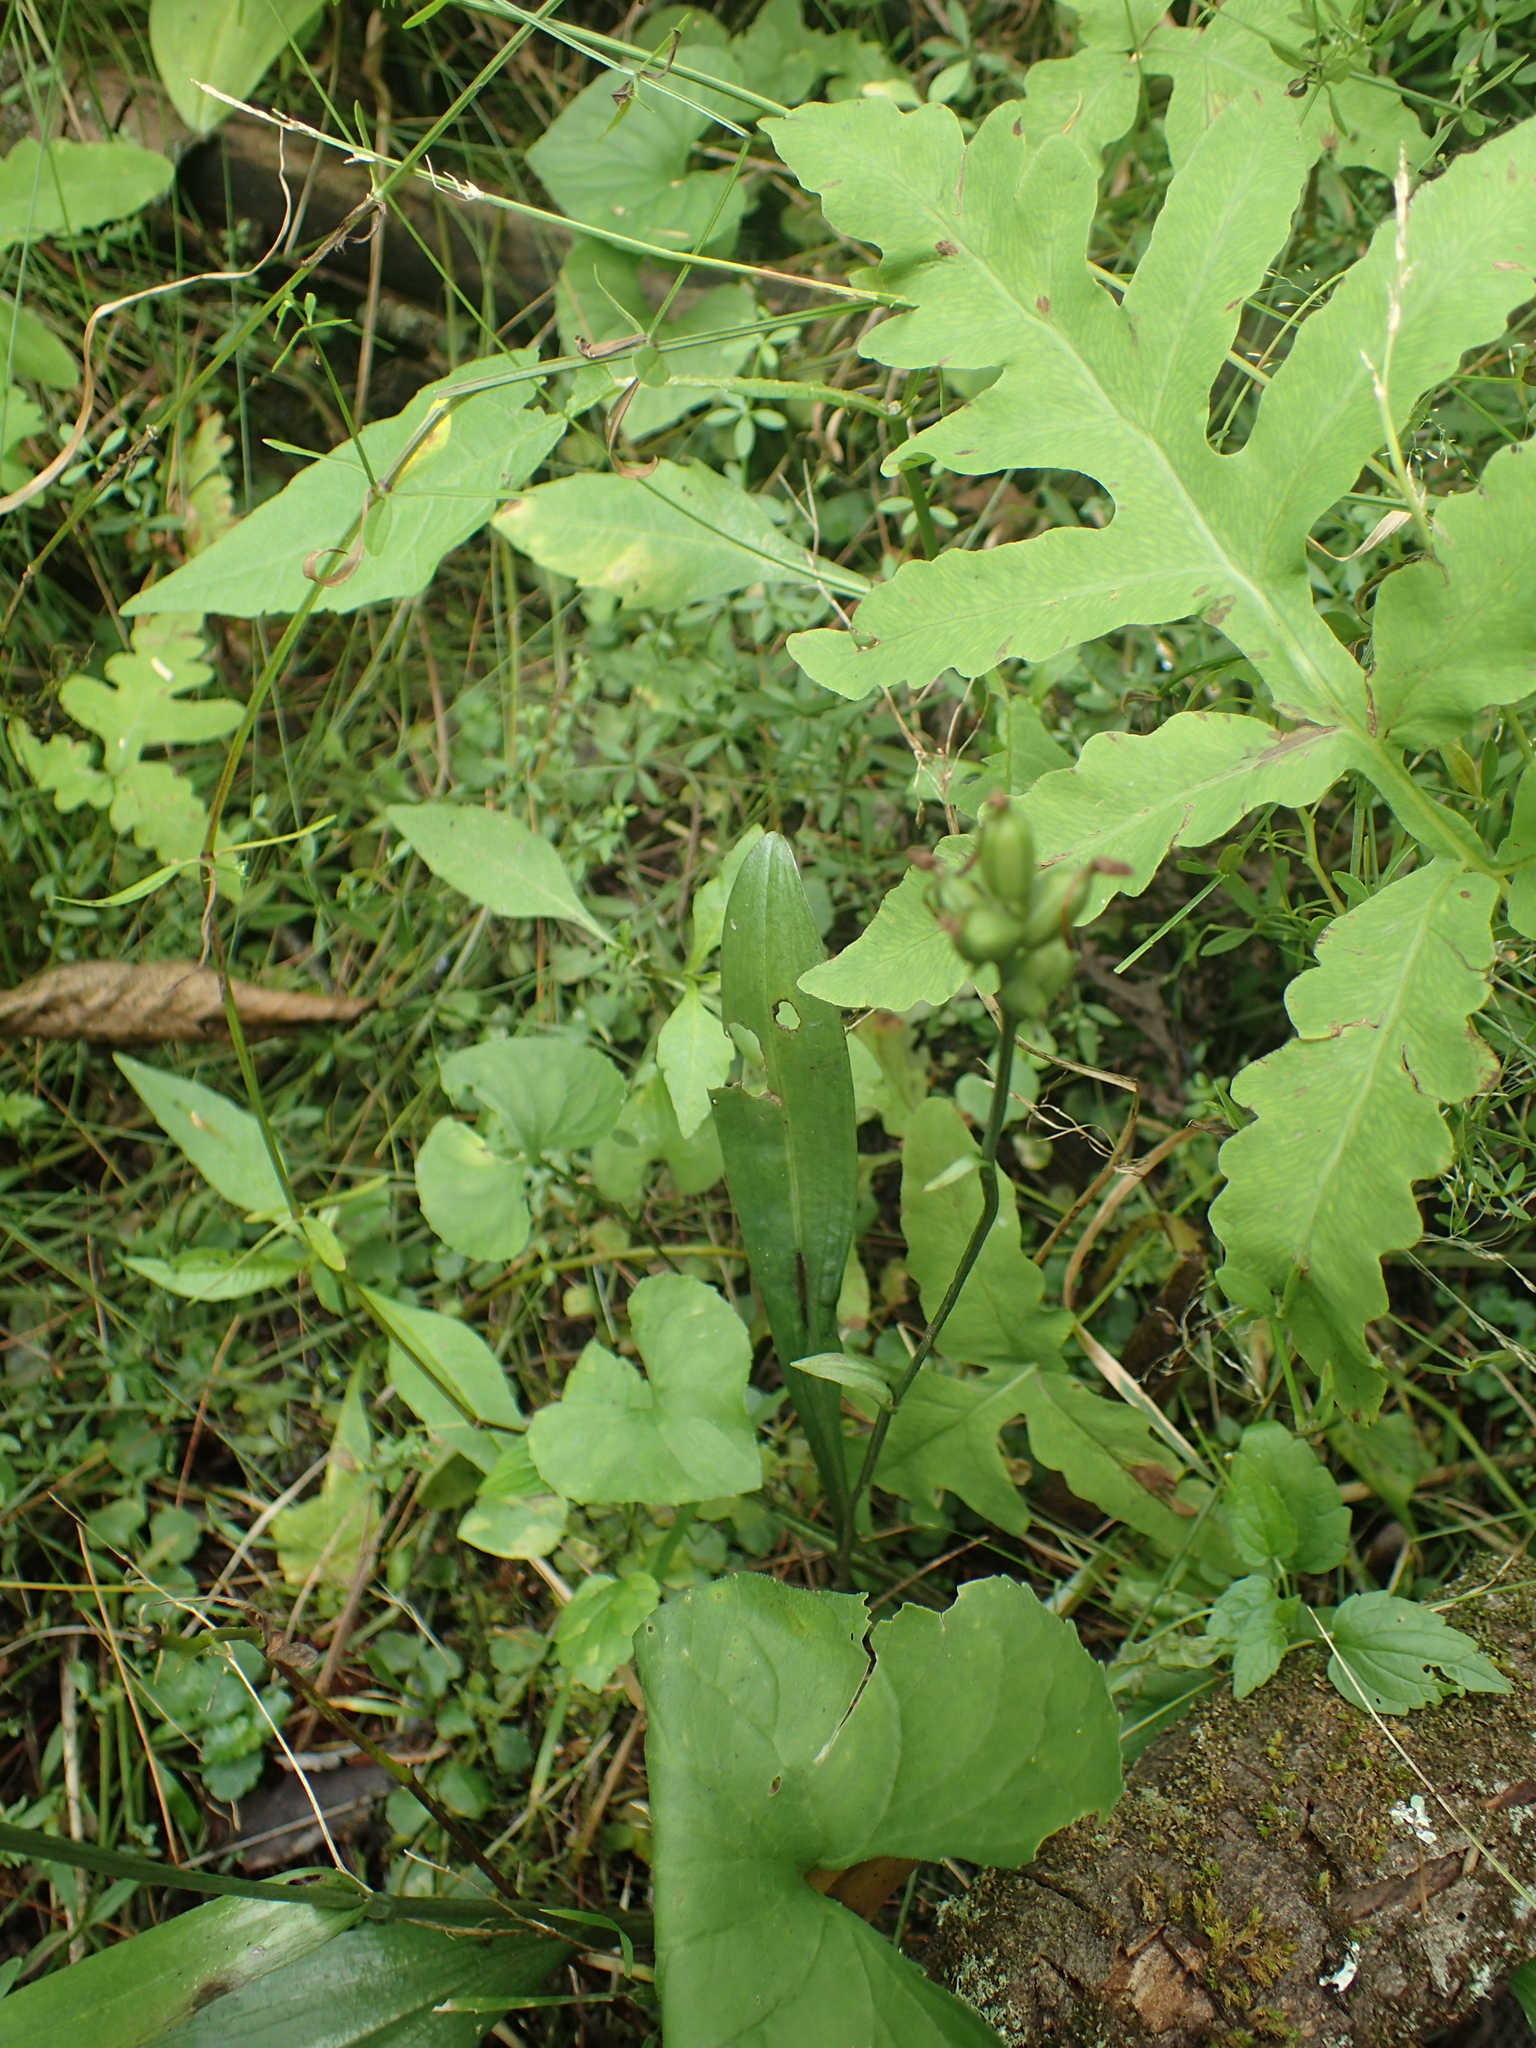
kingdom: Plantae
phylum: Tracheophyta
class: Liliopsida
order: Asparagales
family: Orchidaceae
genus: Platanthera
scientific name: Platanthera clavellata
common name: Club-spur orchid
